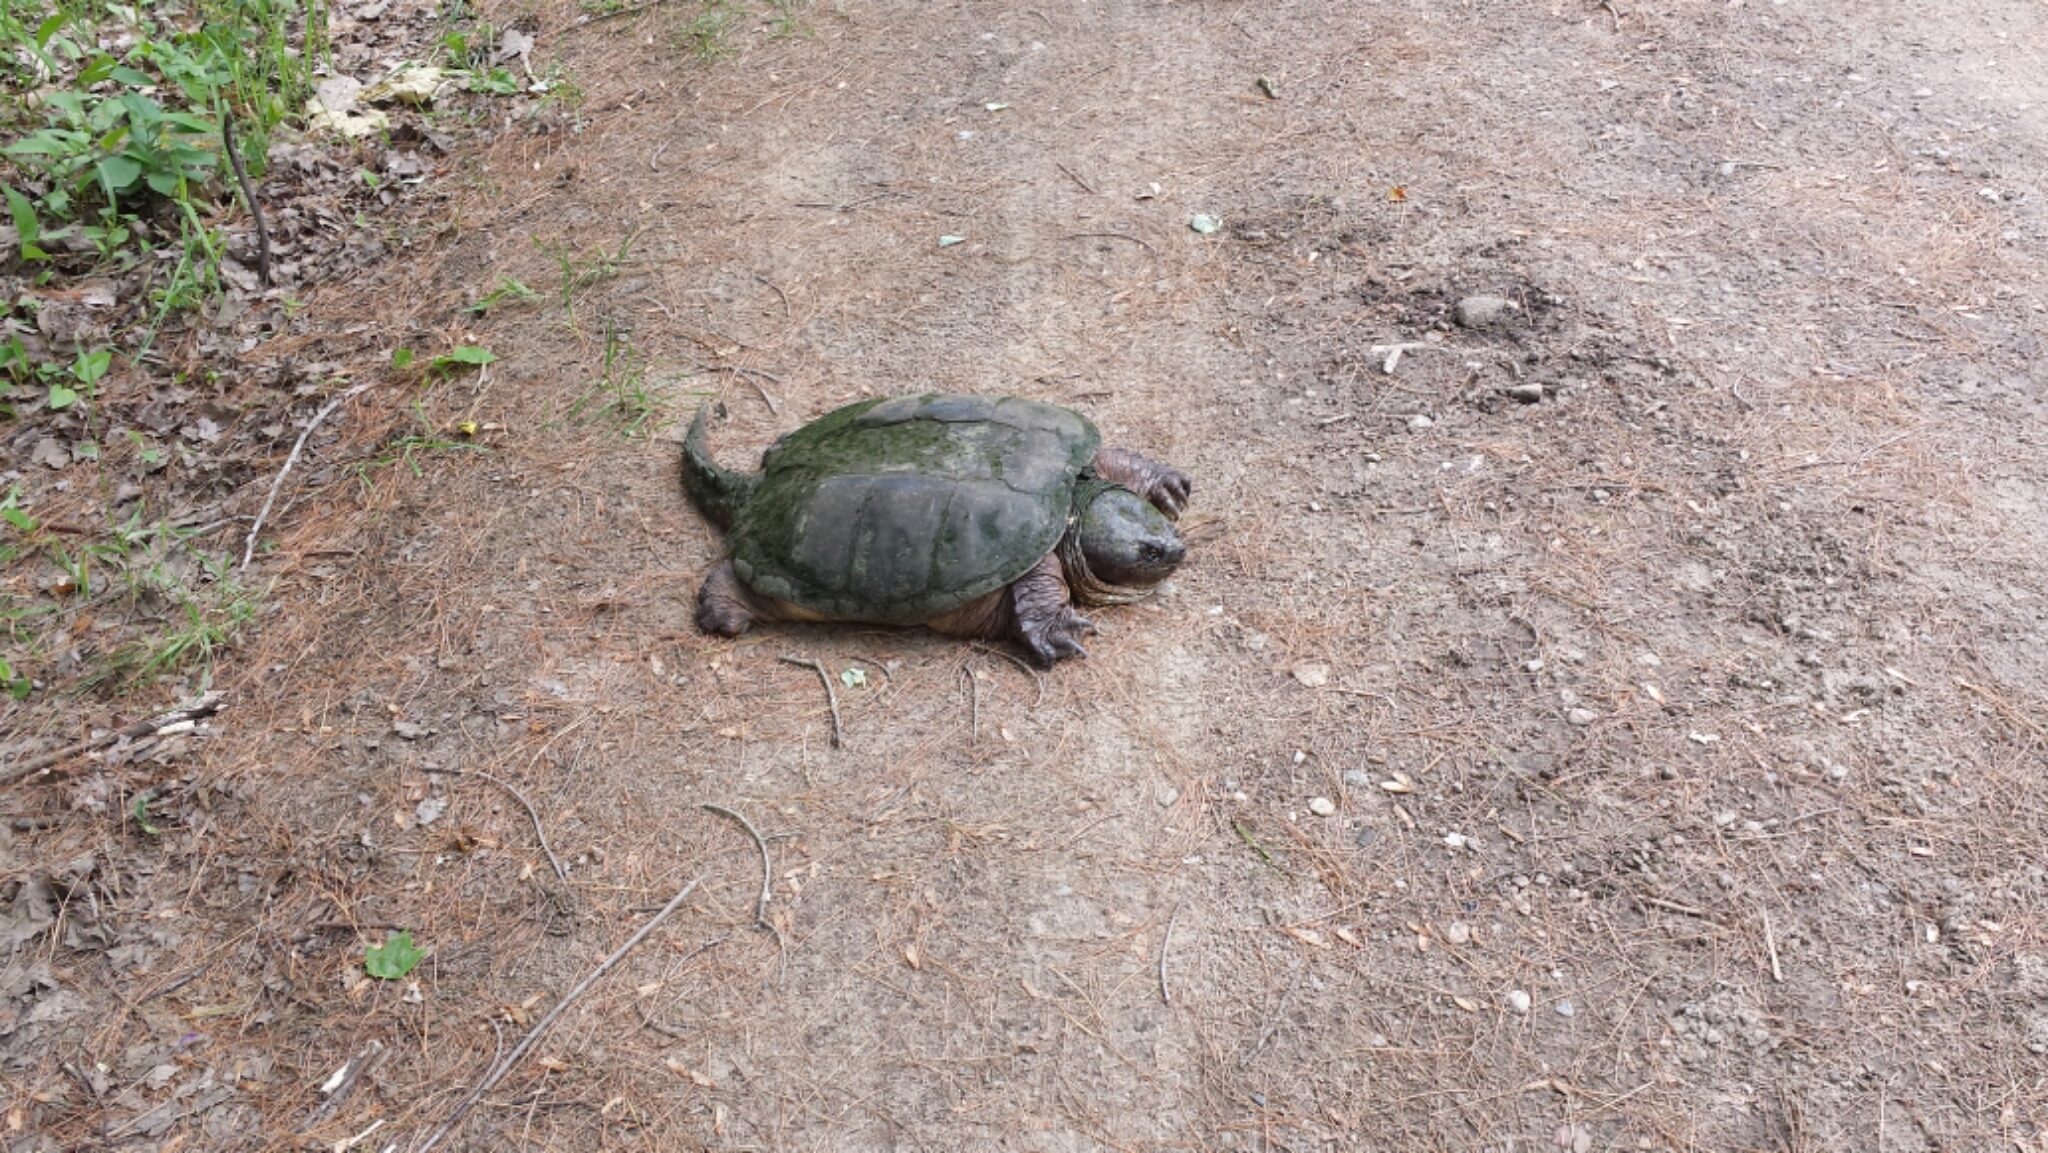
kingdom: Animalia
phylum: Chordata
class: Testudines
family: Chelydridae
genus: Chelydra
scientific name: Chelydra serpentina
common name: Common snapping turtle
